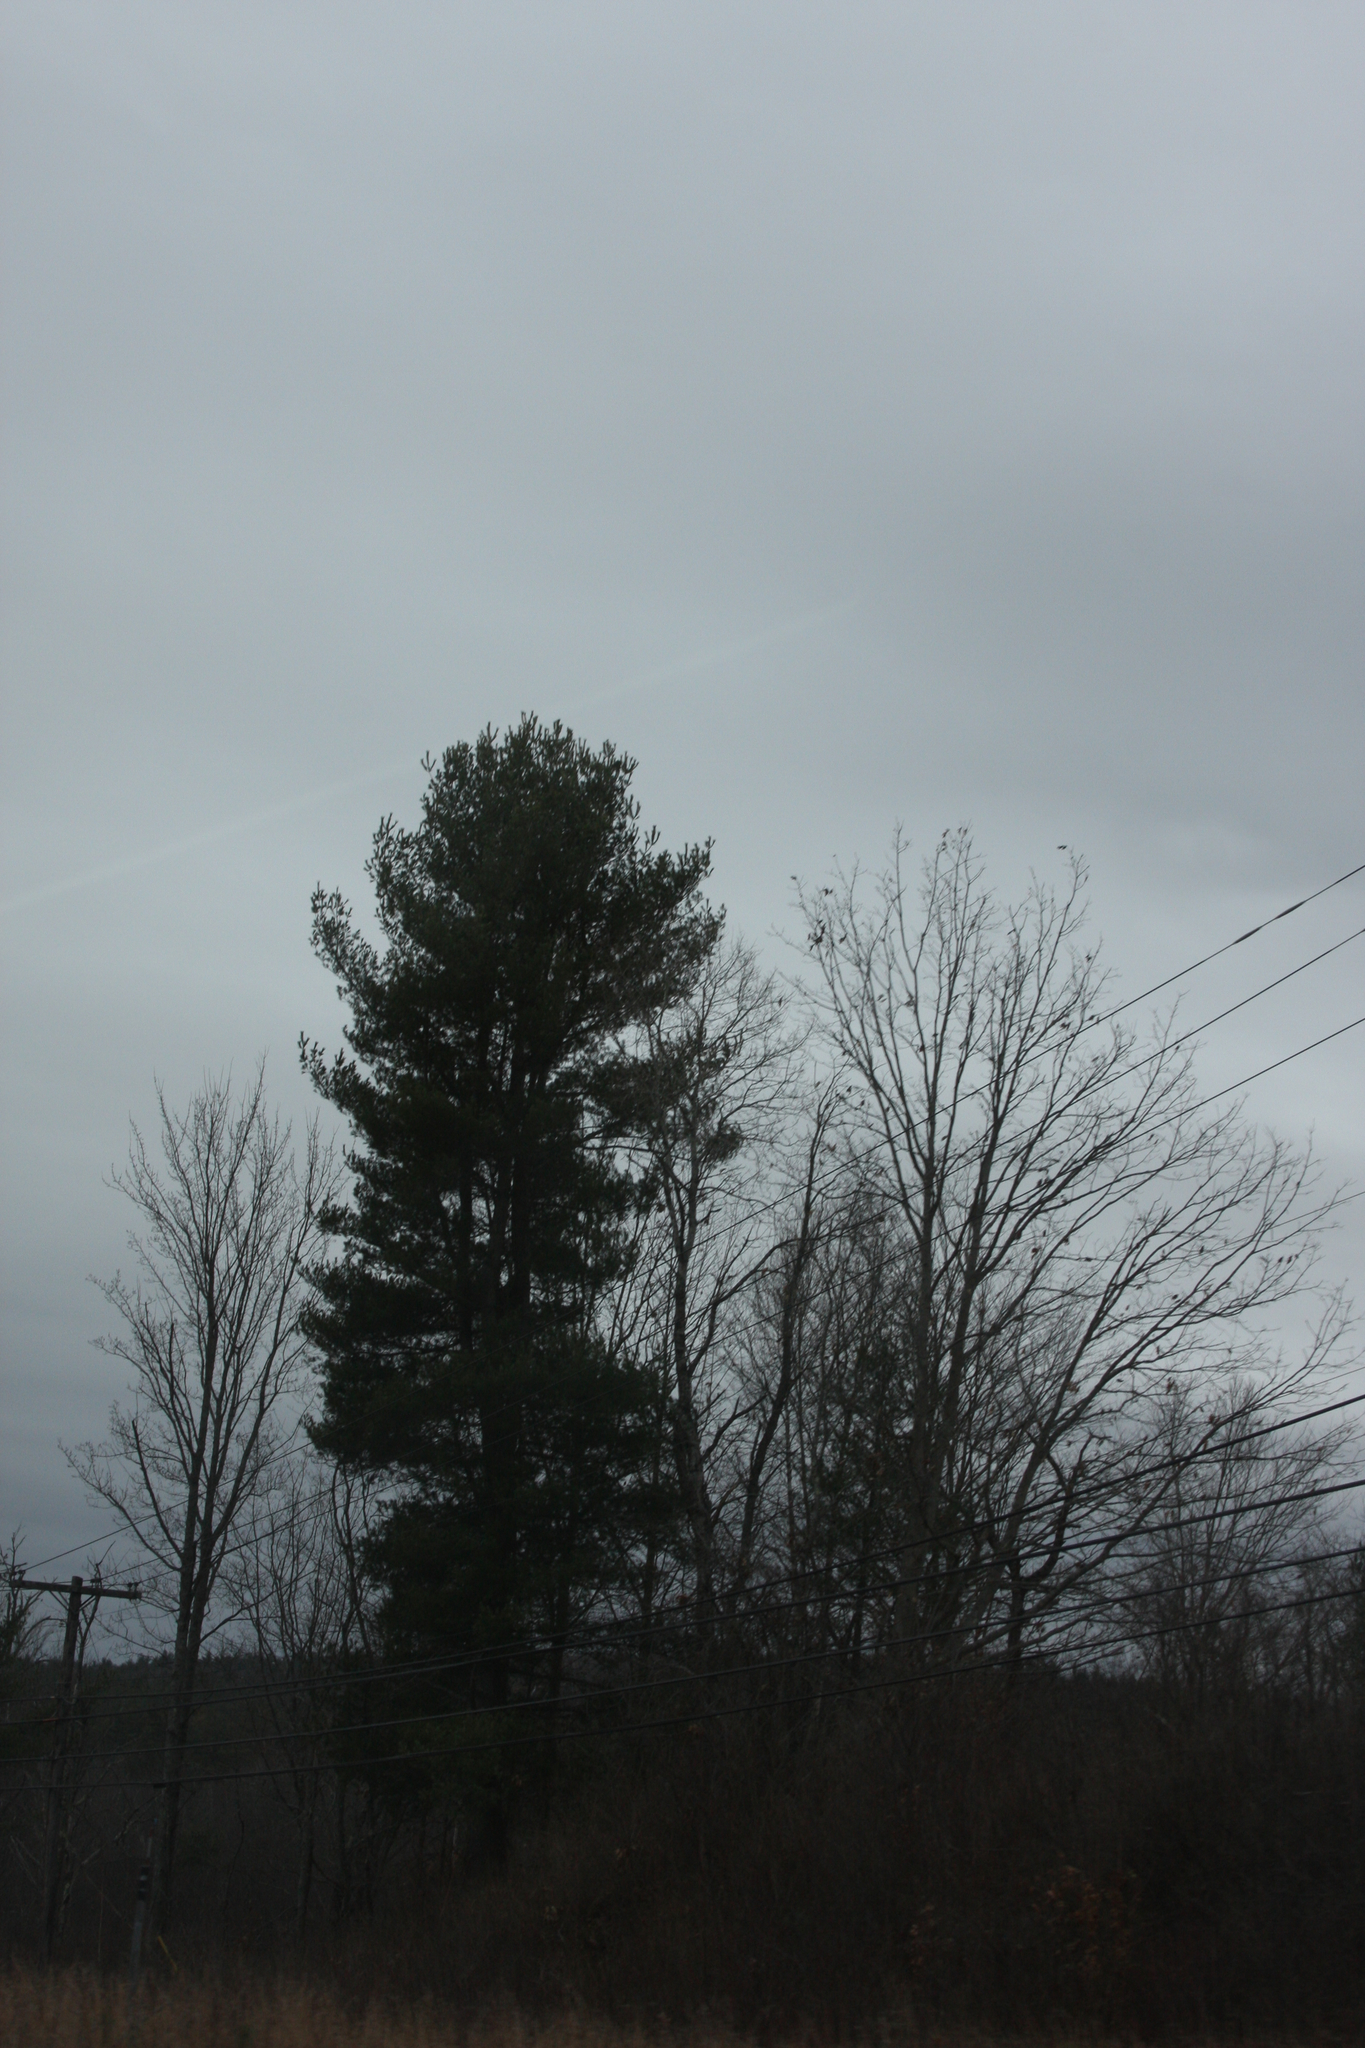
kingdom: Plantae
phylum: Tracheophyta
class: Pinopsida
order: Pinales
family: Pinaceae
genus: Pinus
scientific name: Pinus strobus
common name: Weymouth pine
